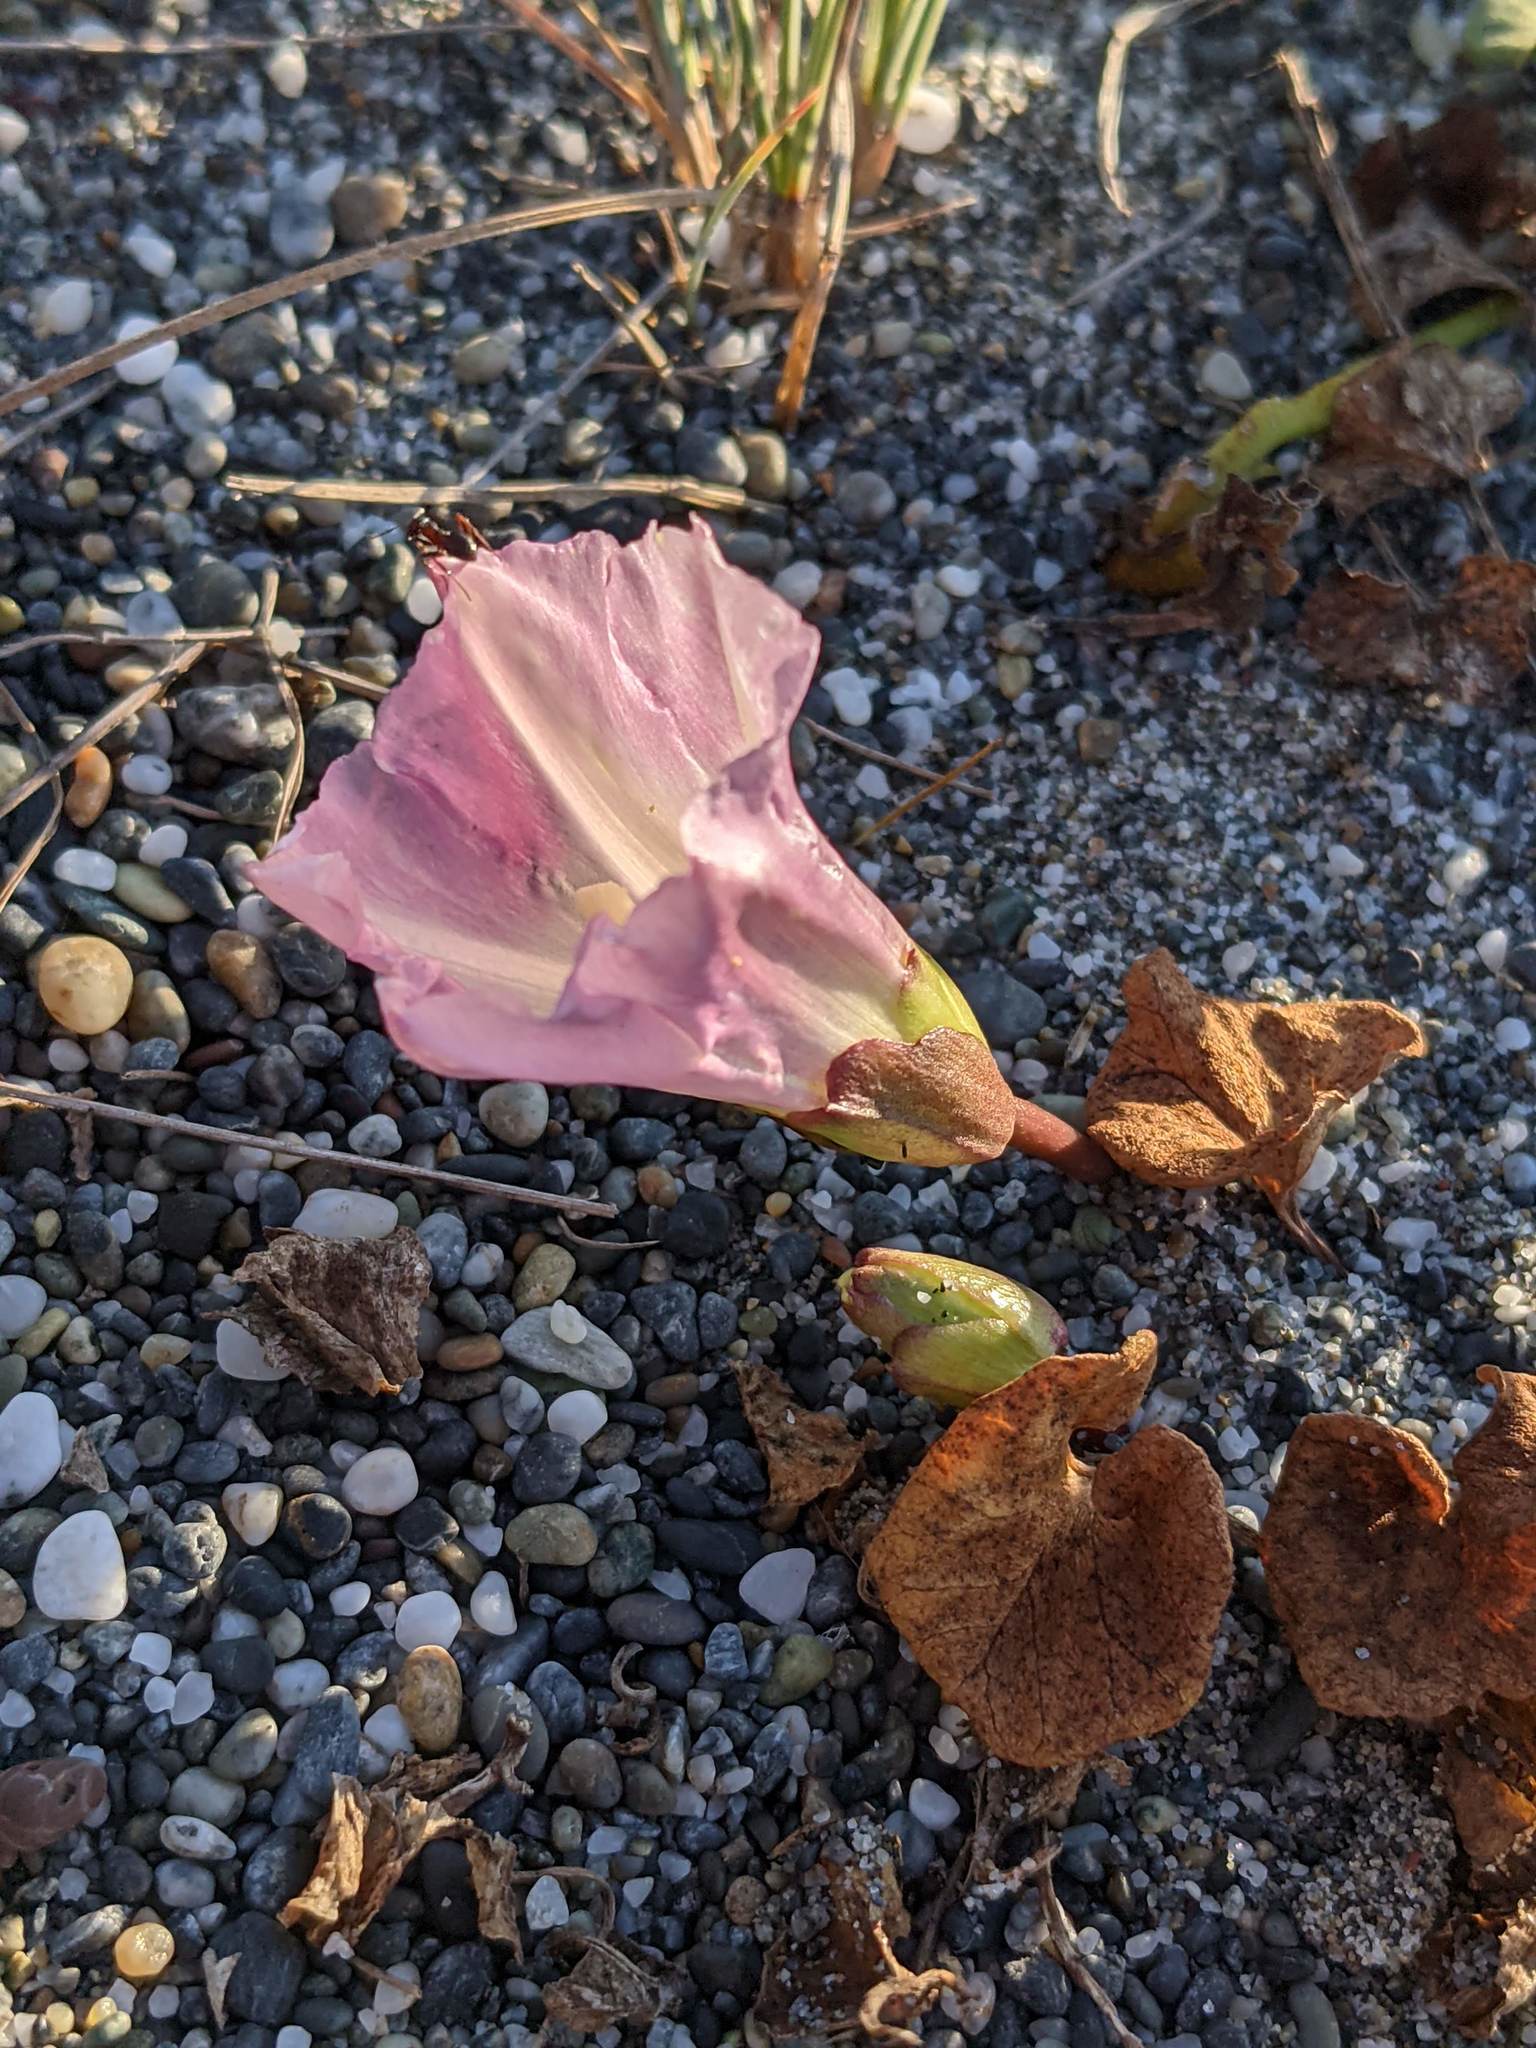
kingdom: Plantae
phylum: Tracheophyta
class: Magnoliopsida
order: Solanales
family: Convolvulaceae
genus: Calystegia
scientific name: Calystegia soldanella
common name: Sea bindweed
